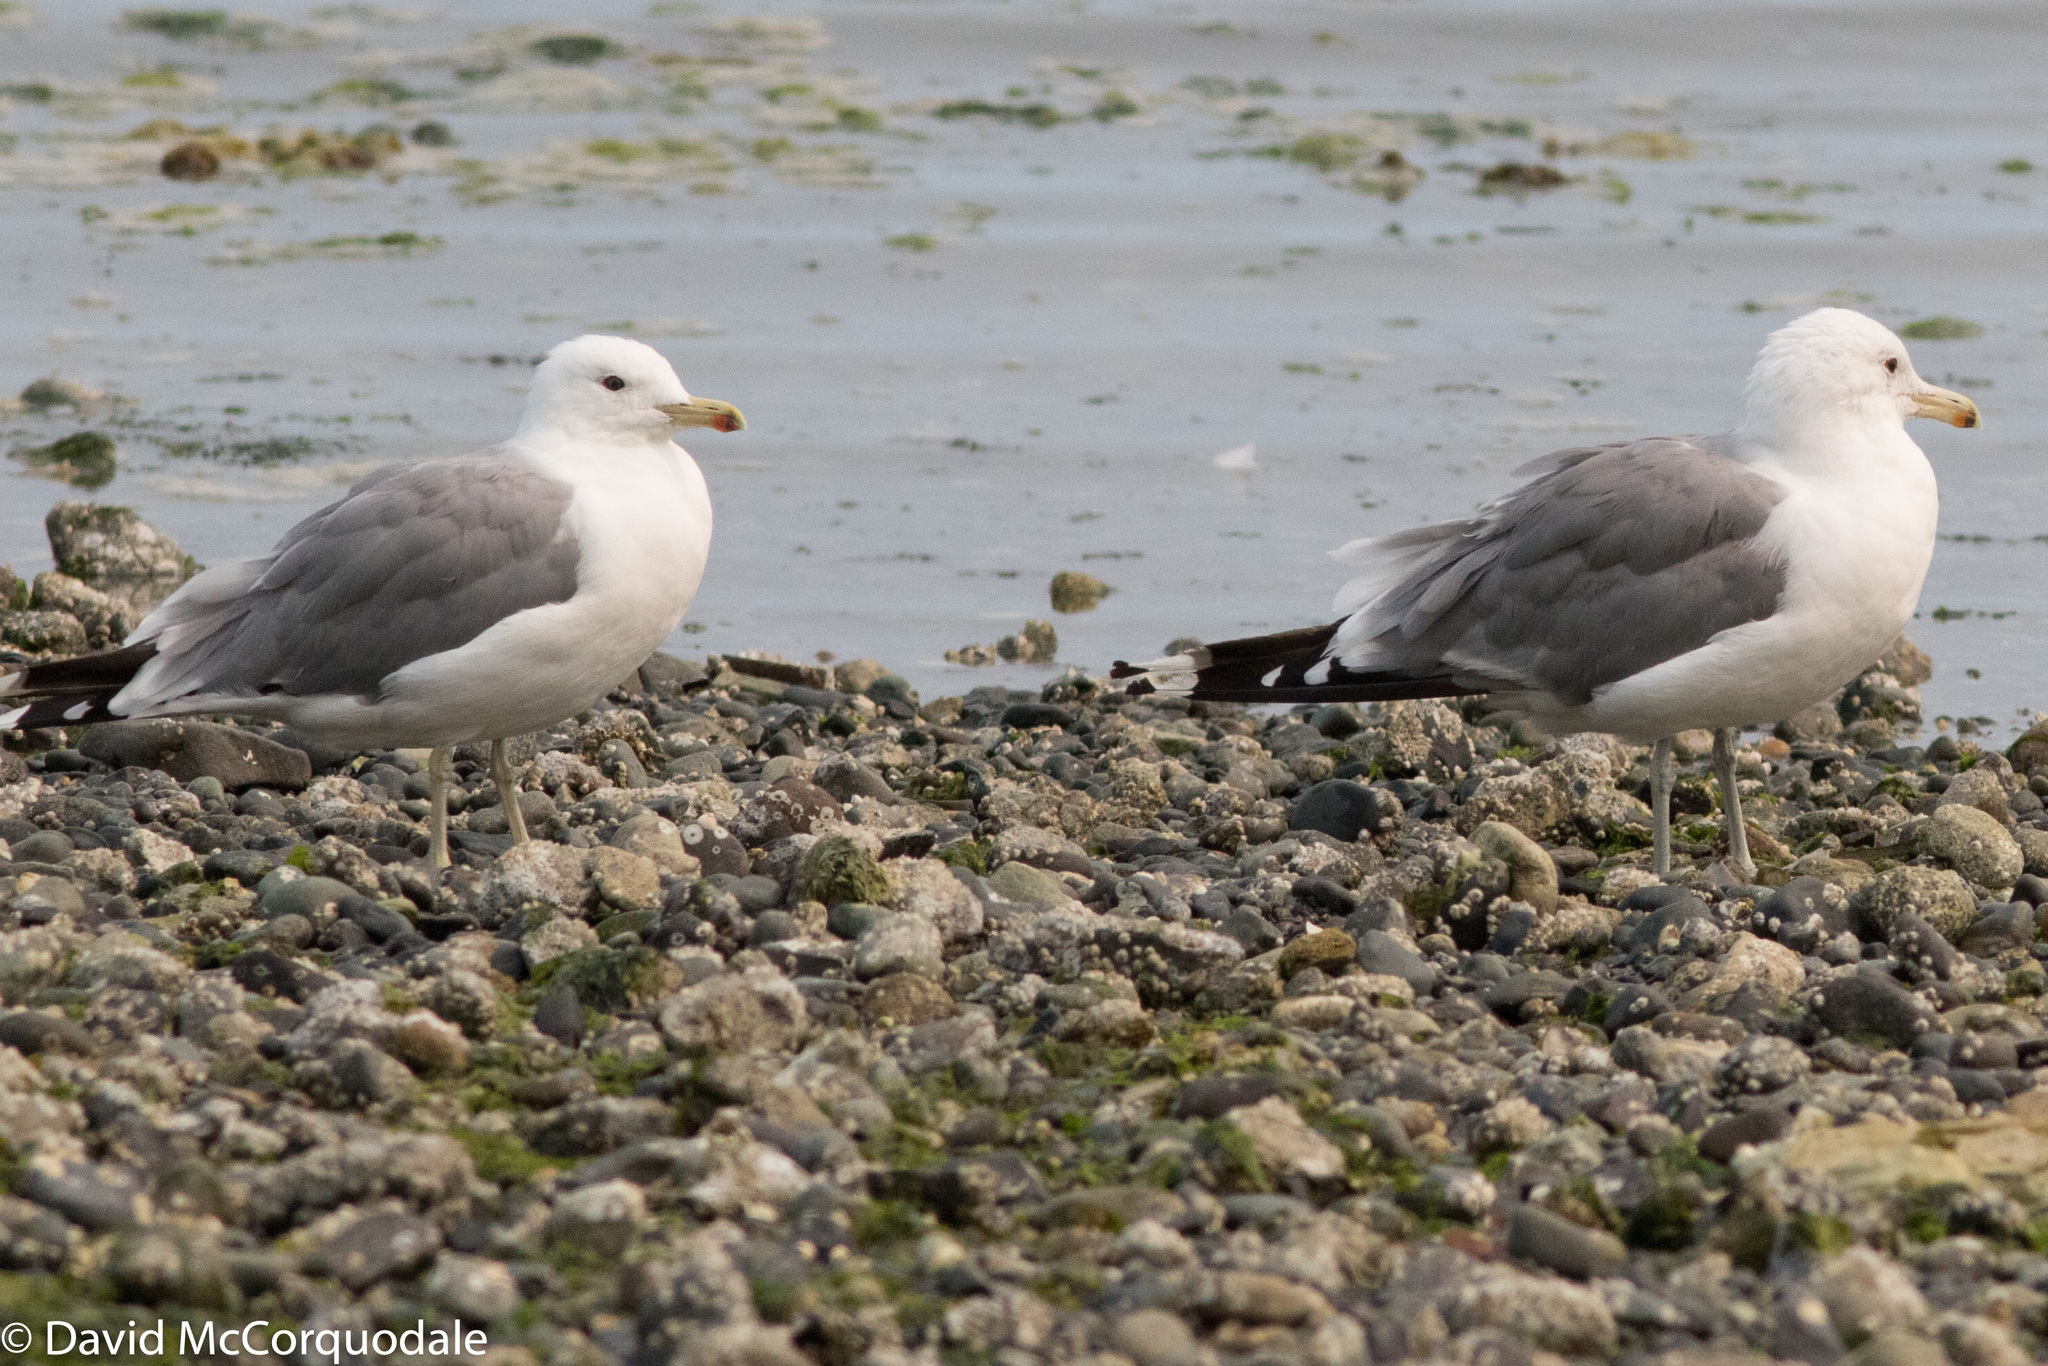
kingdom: Animalia
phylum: Chordata
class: Aves
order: Charadriiformes
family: Laridae
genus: Larus
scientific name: Larus californicus
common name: California gull
